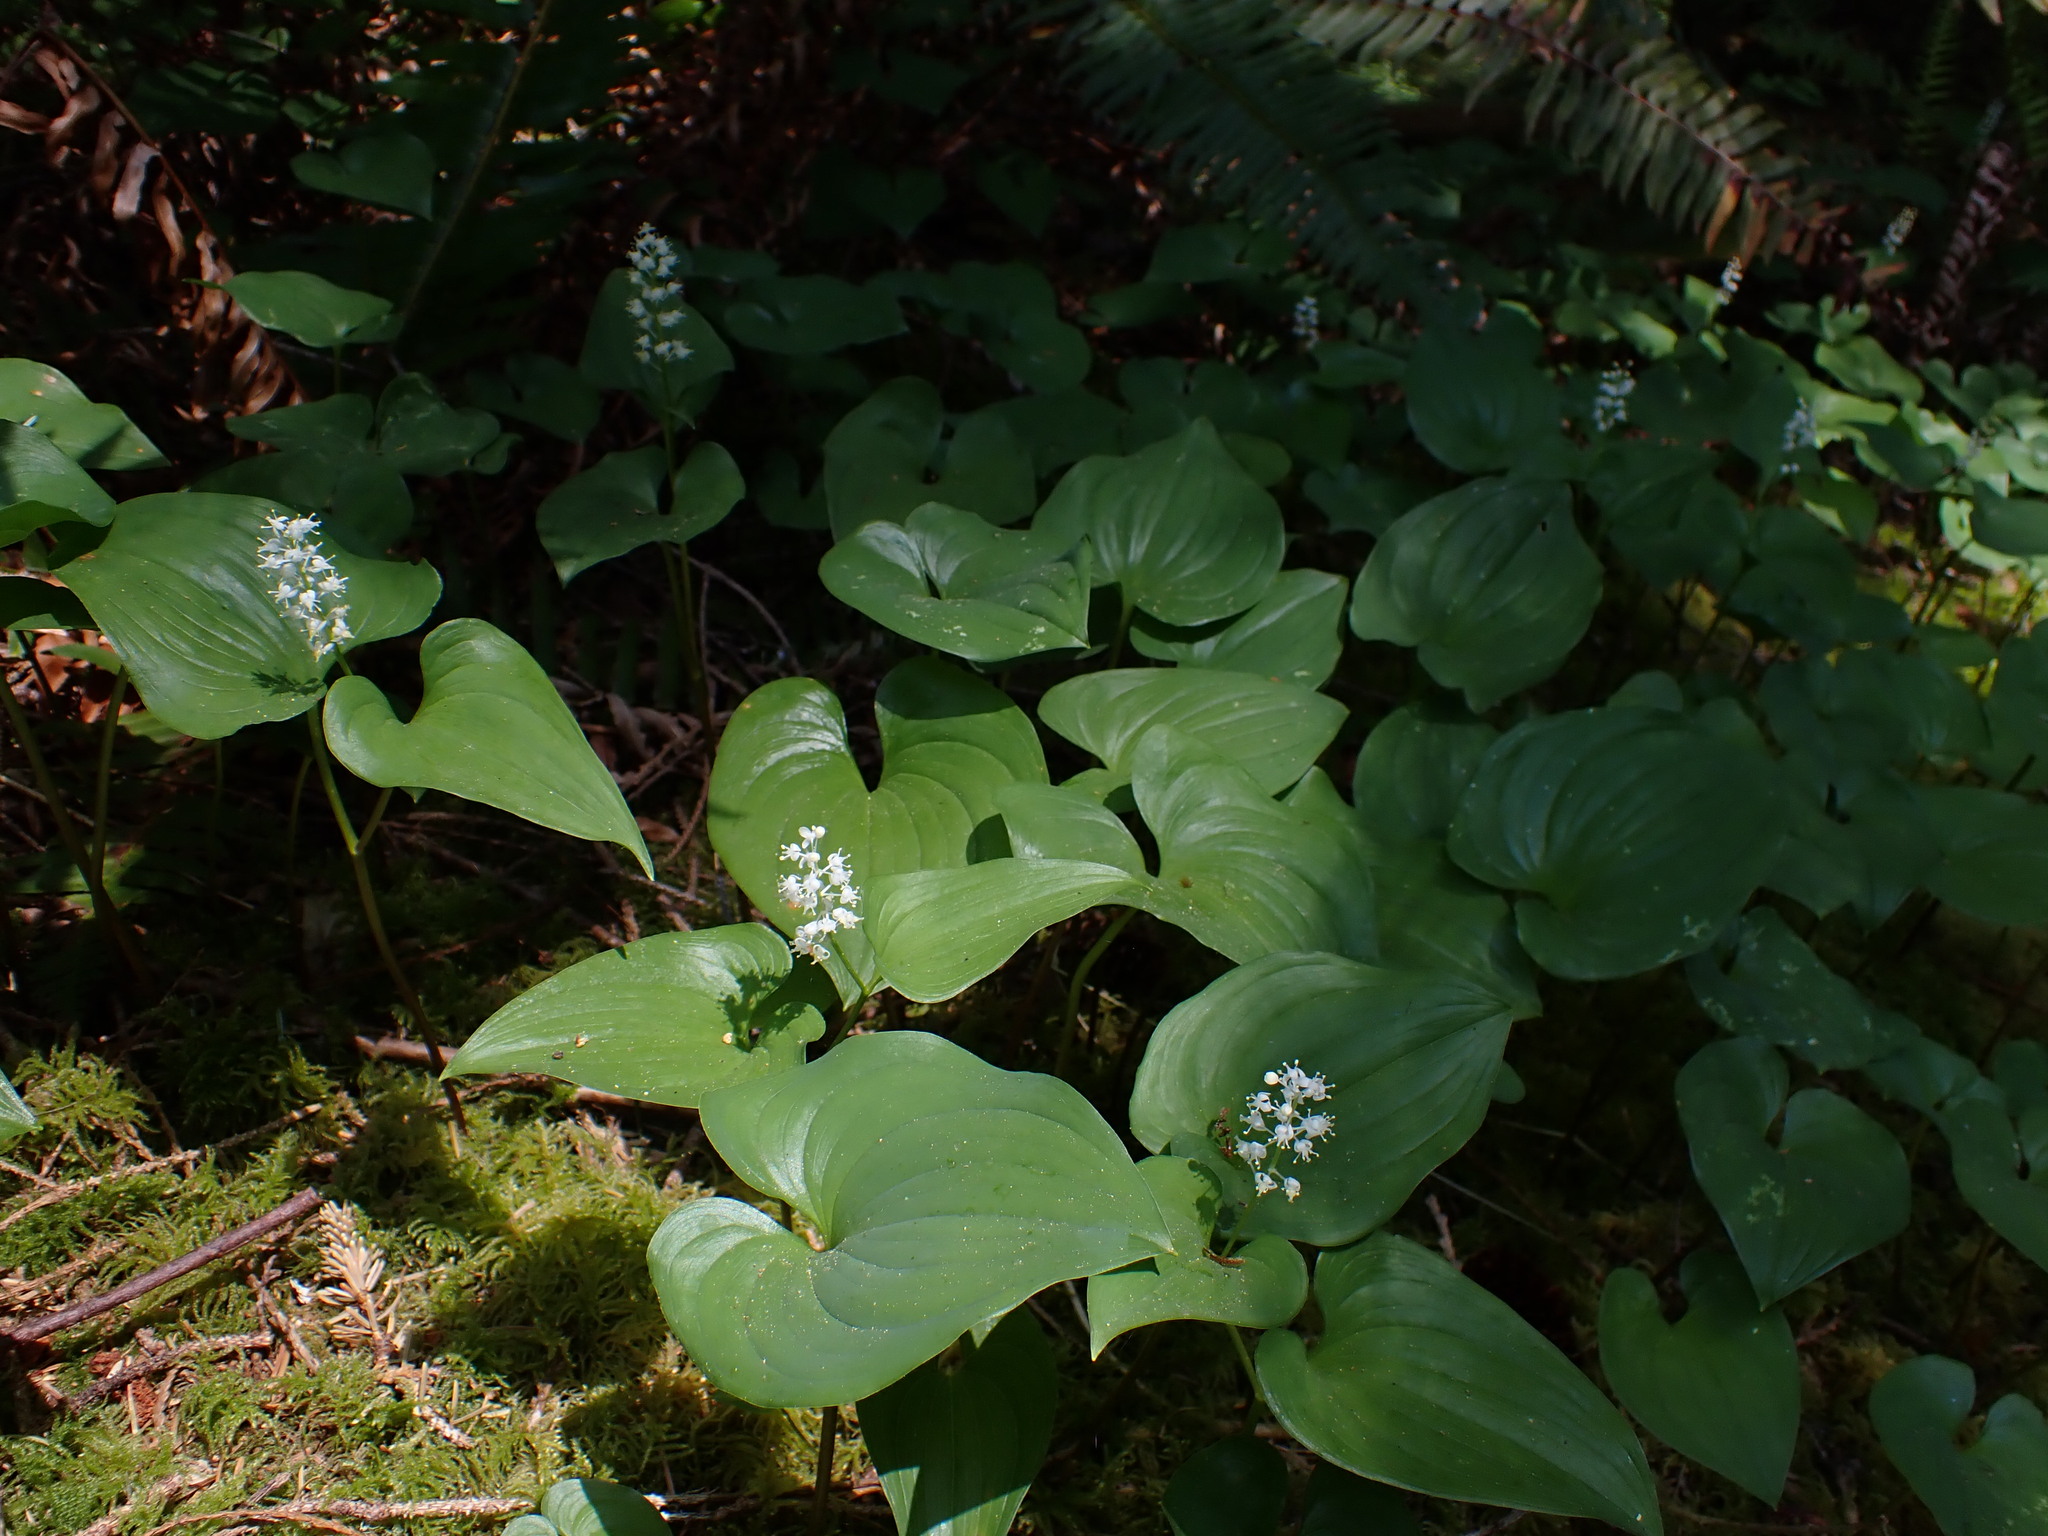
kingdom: Plantae
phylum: Tracheophyta
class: Liliopsida
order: Asparagales
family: Asparagaceae
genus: Maianthemum
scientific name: Maianthemum dilatatum
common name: False lily-of-the-valley
